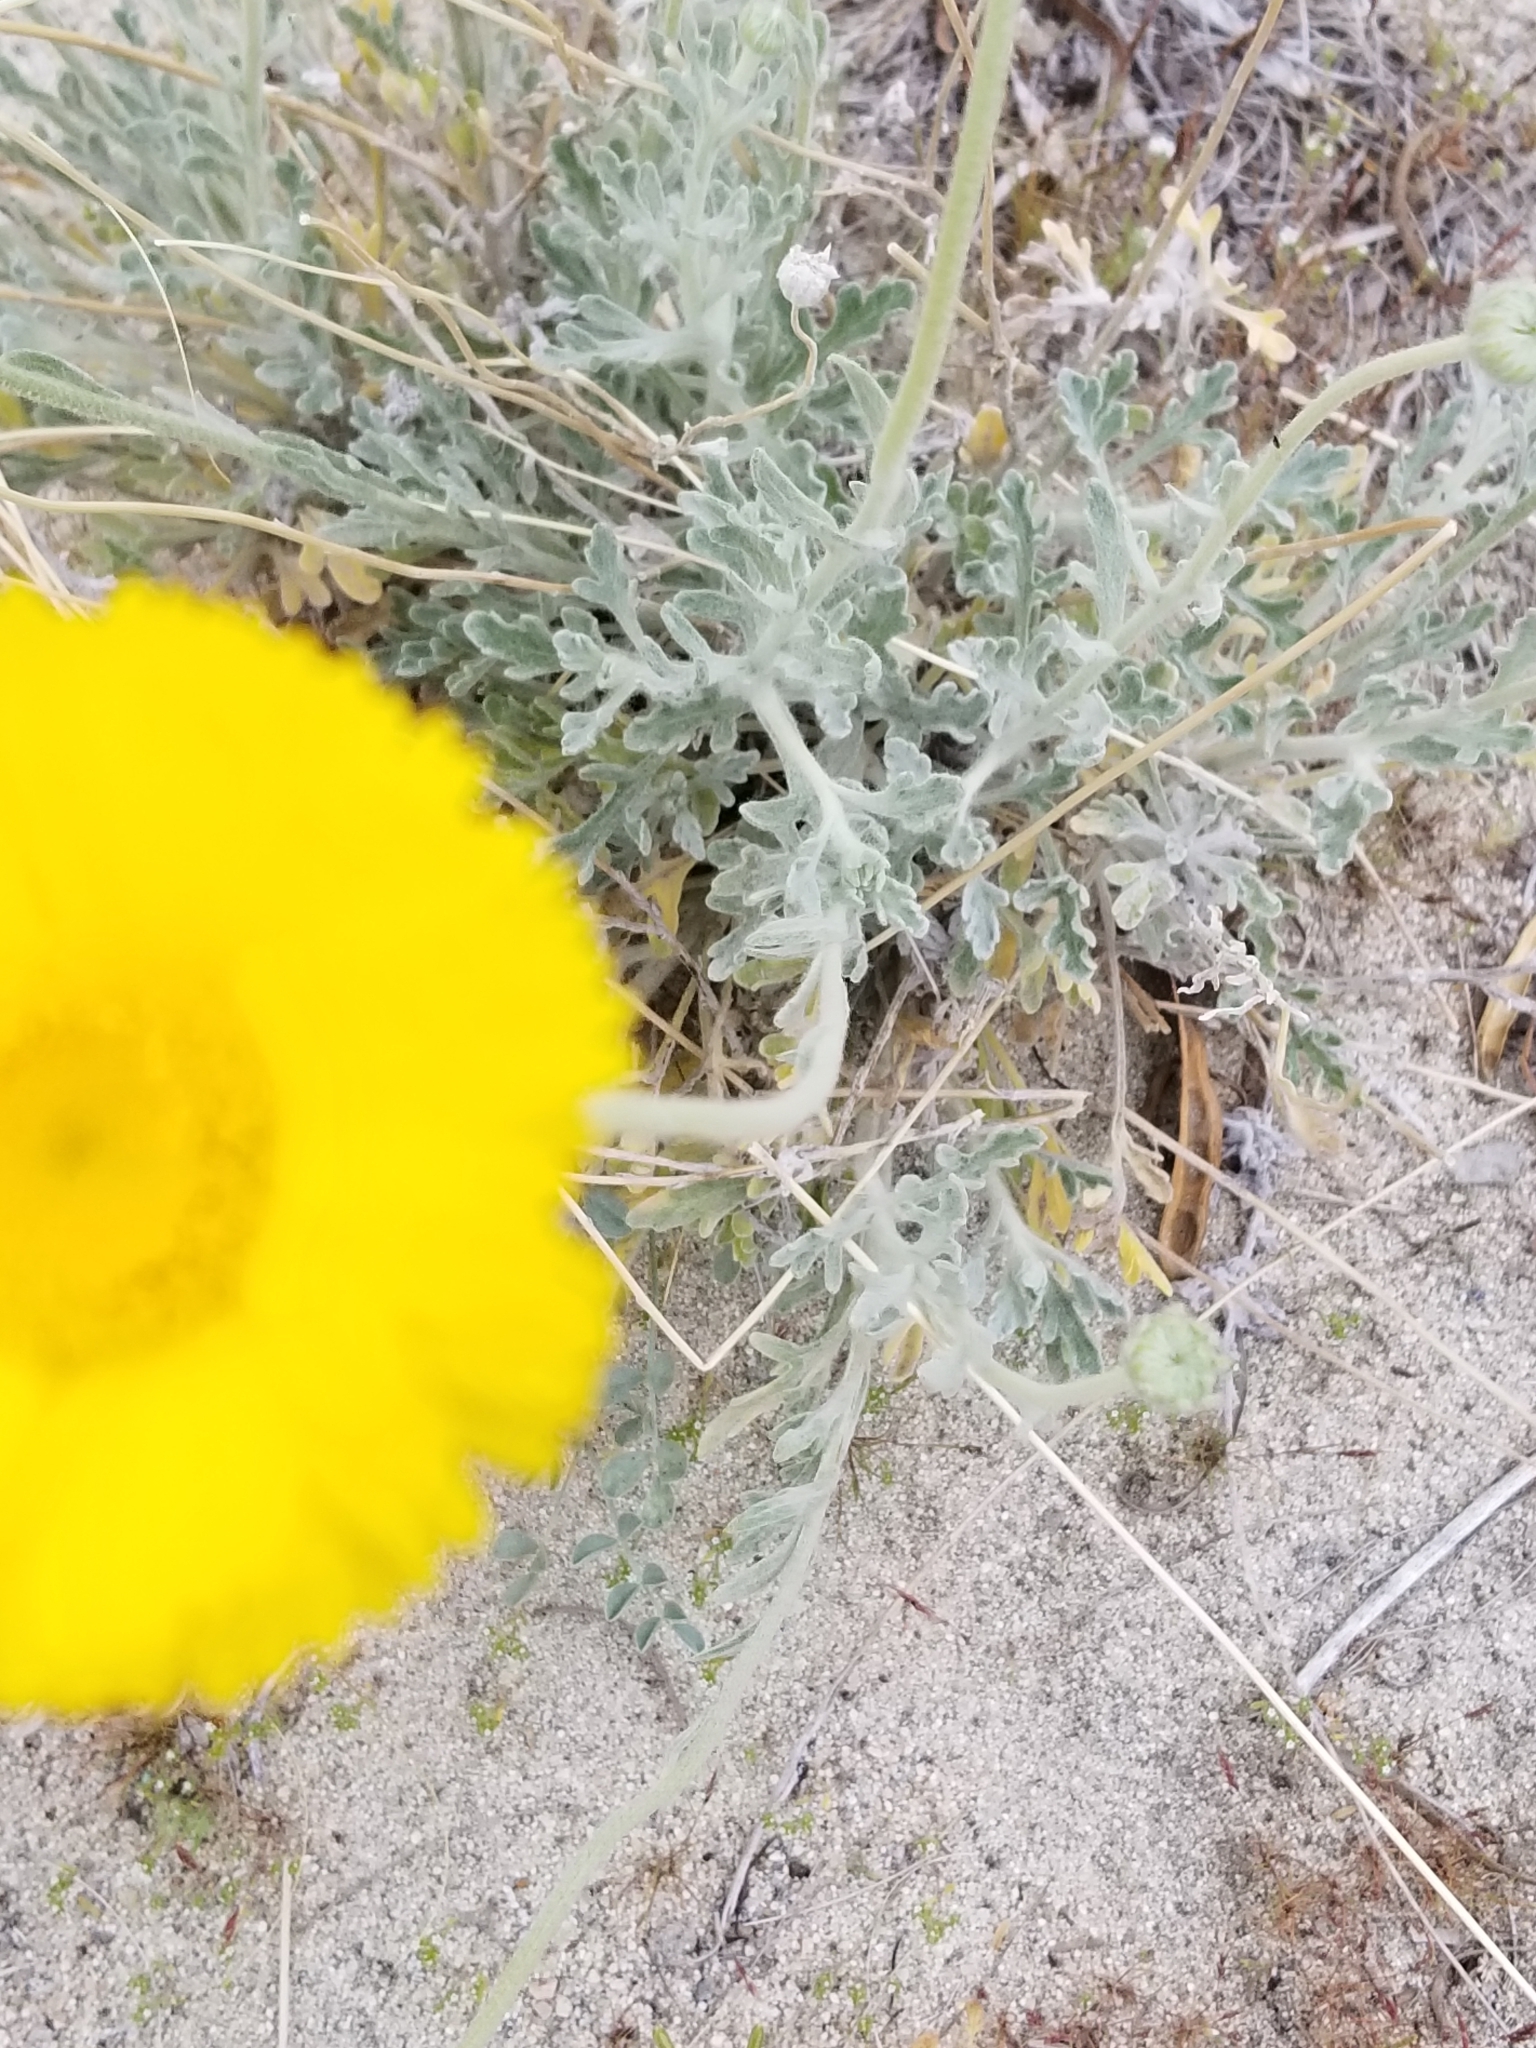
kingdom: Plantae
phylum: Tracheophyta
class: Magnoliopsida
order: Asterales
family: Asteraceae
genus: Baileya
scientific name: Baileya multiradiata
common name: Desert-marigold
